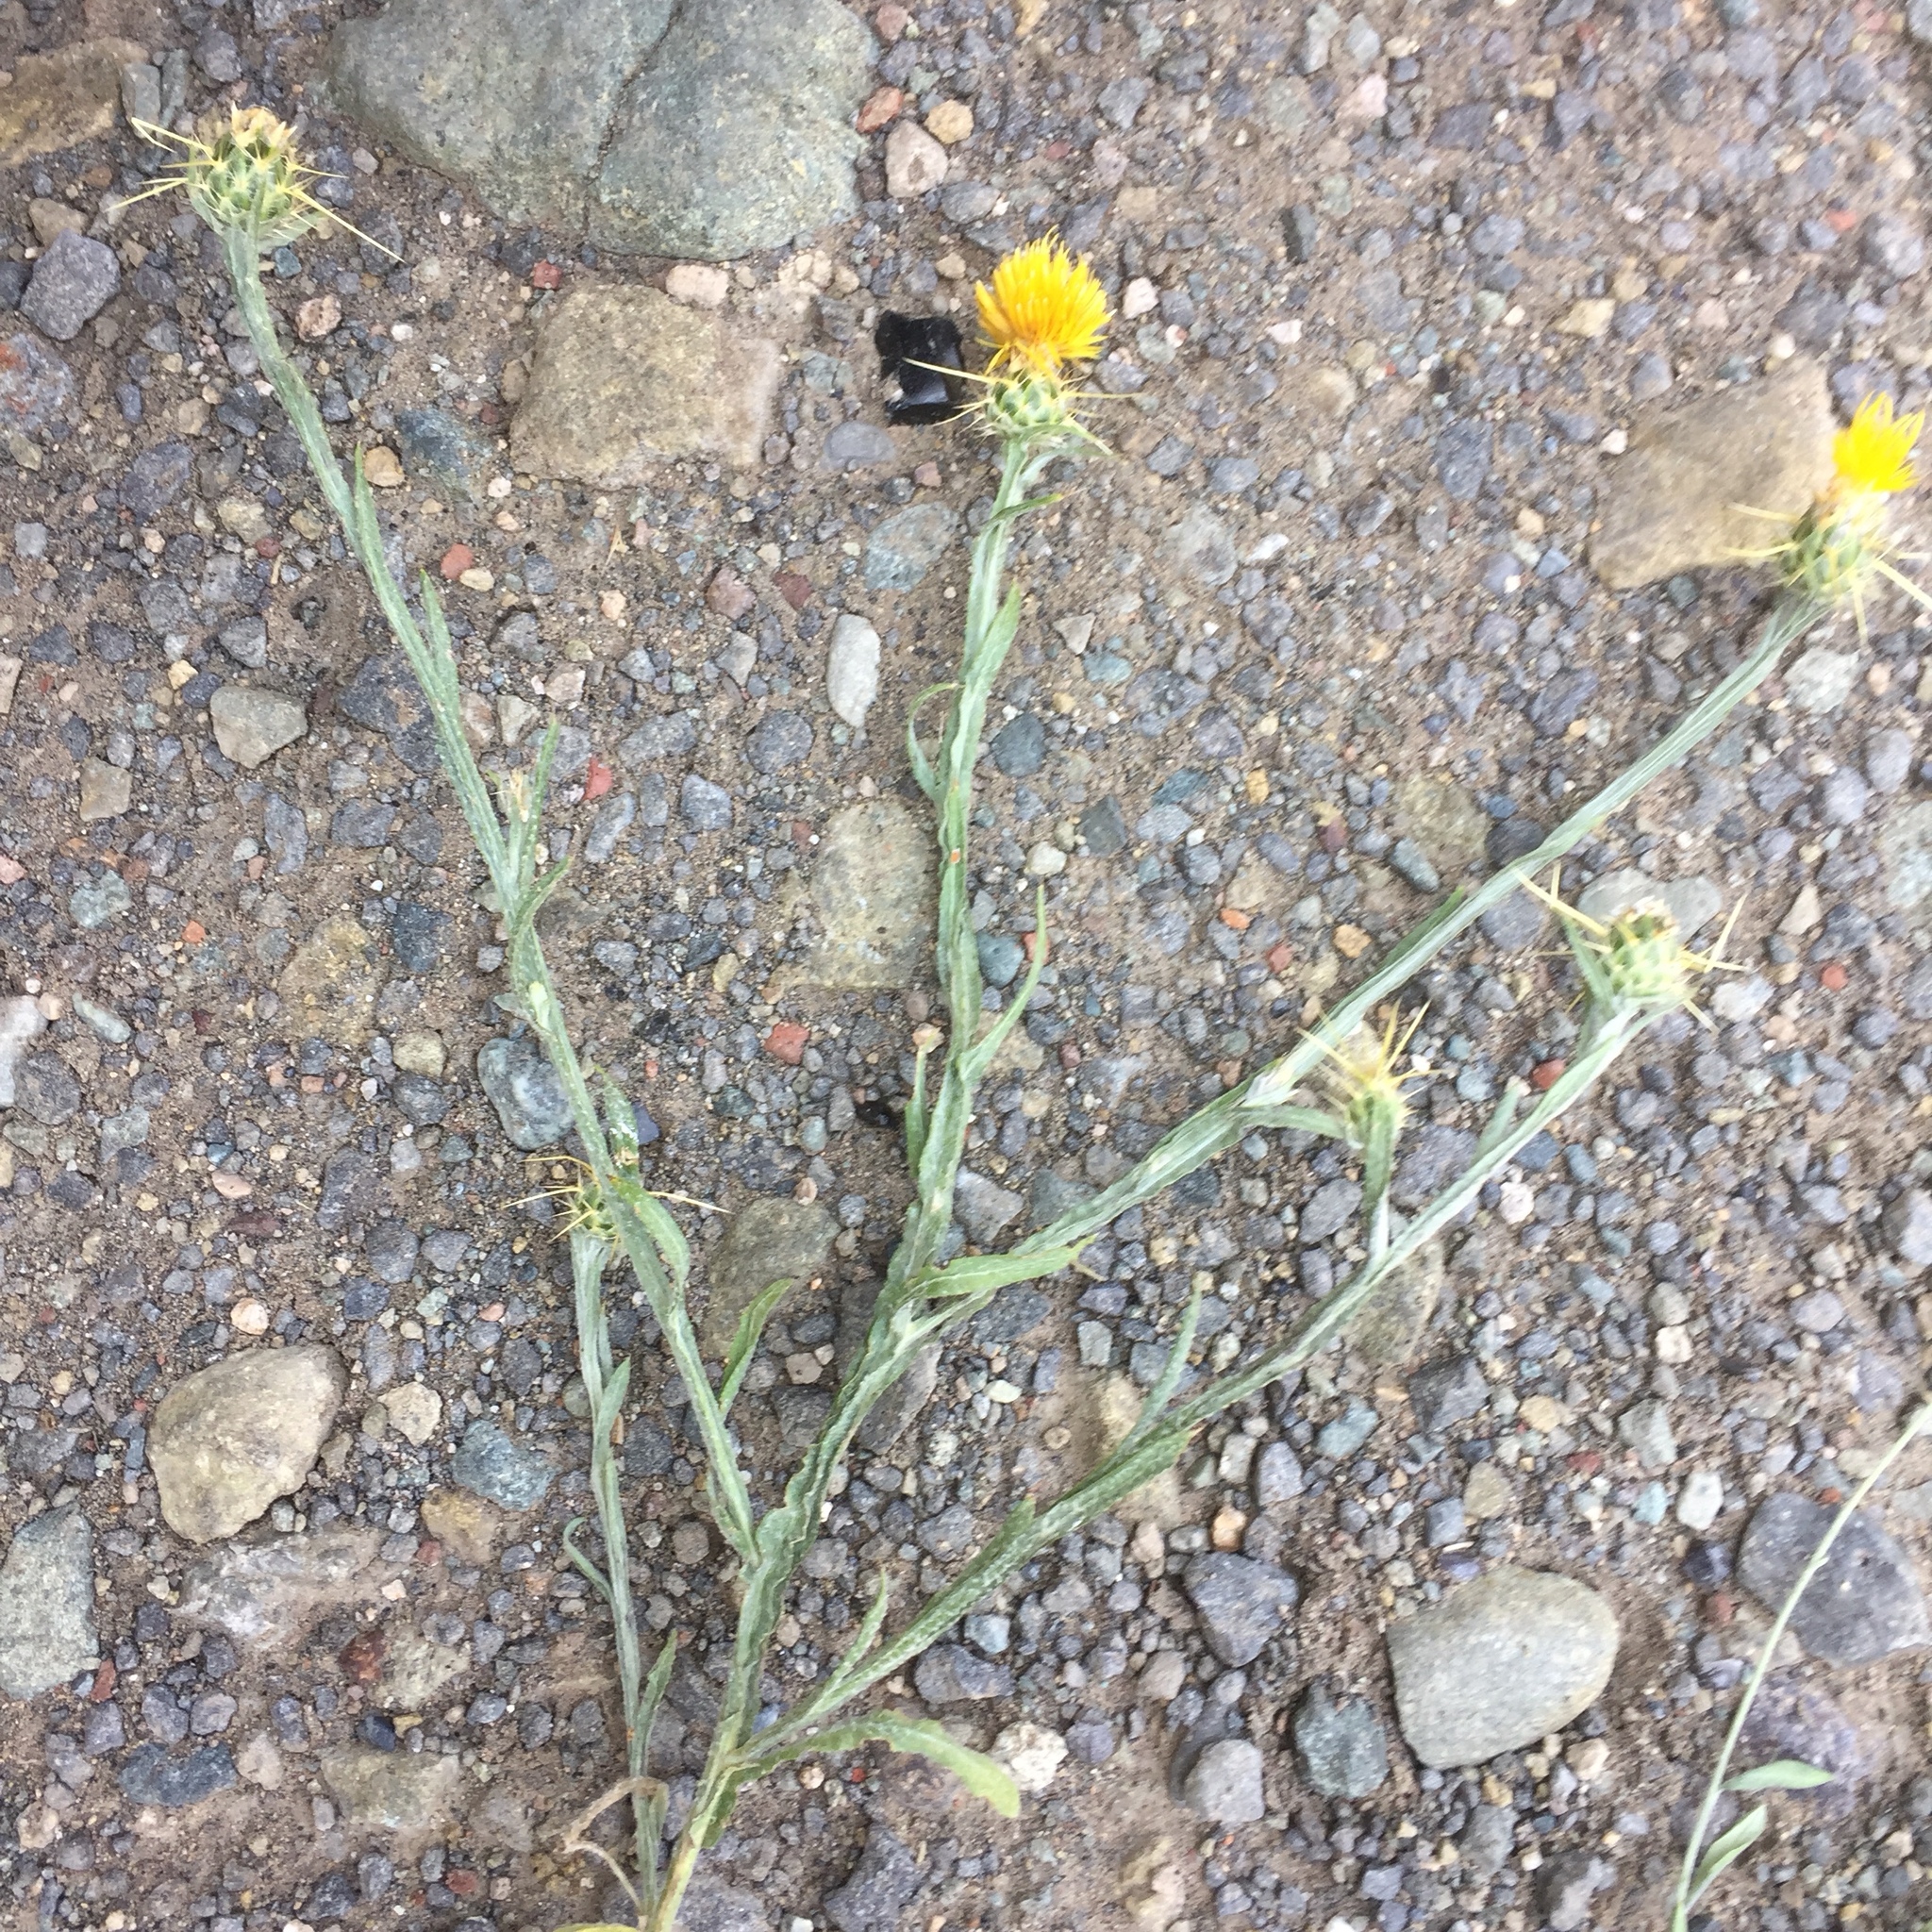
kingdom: Plantae
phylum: Tracheophyta
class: Magnoliopsida
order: Asterales
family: Asteraceae
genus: Centaurea
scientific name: Centaurea solstitialis
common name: Yellow star-thistle
